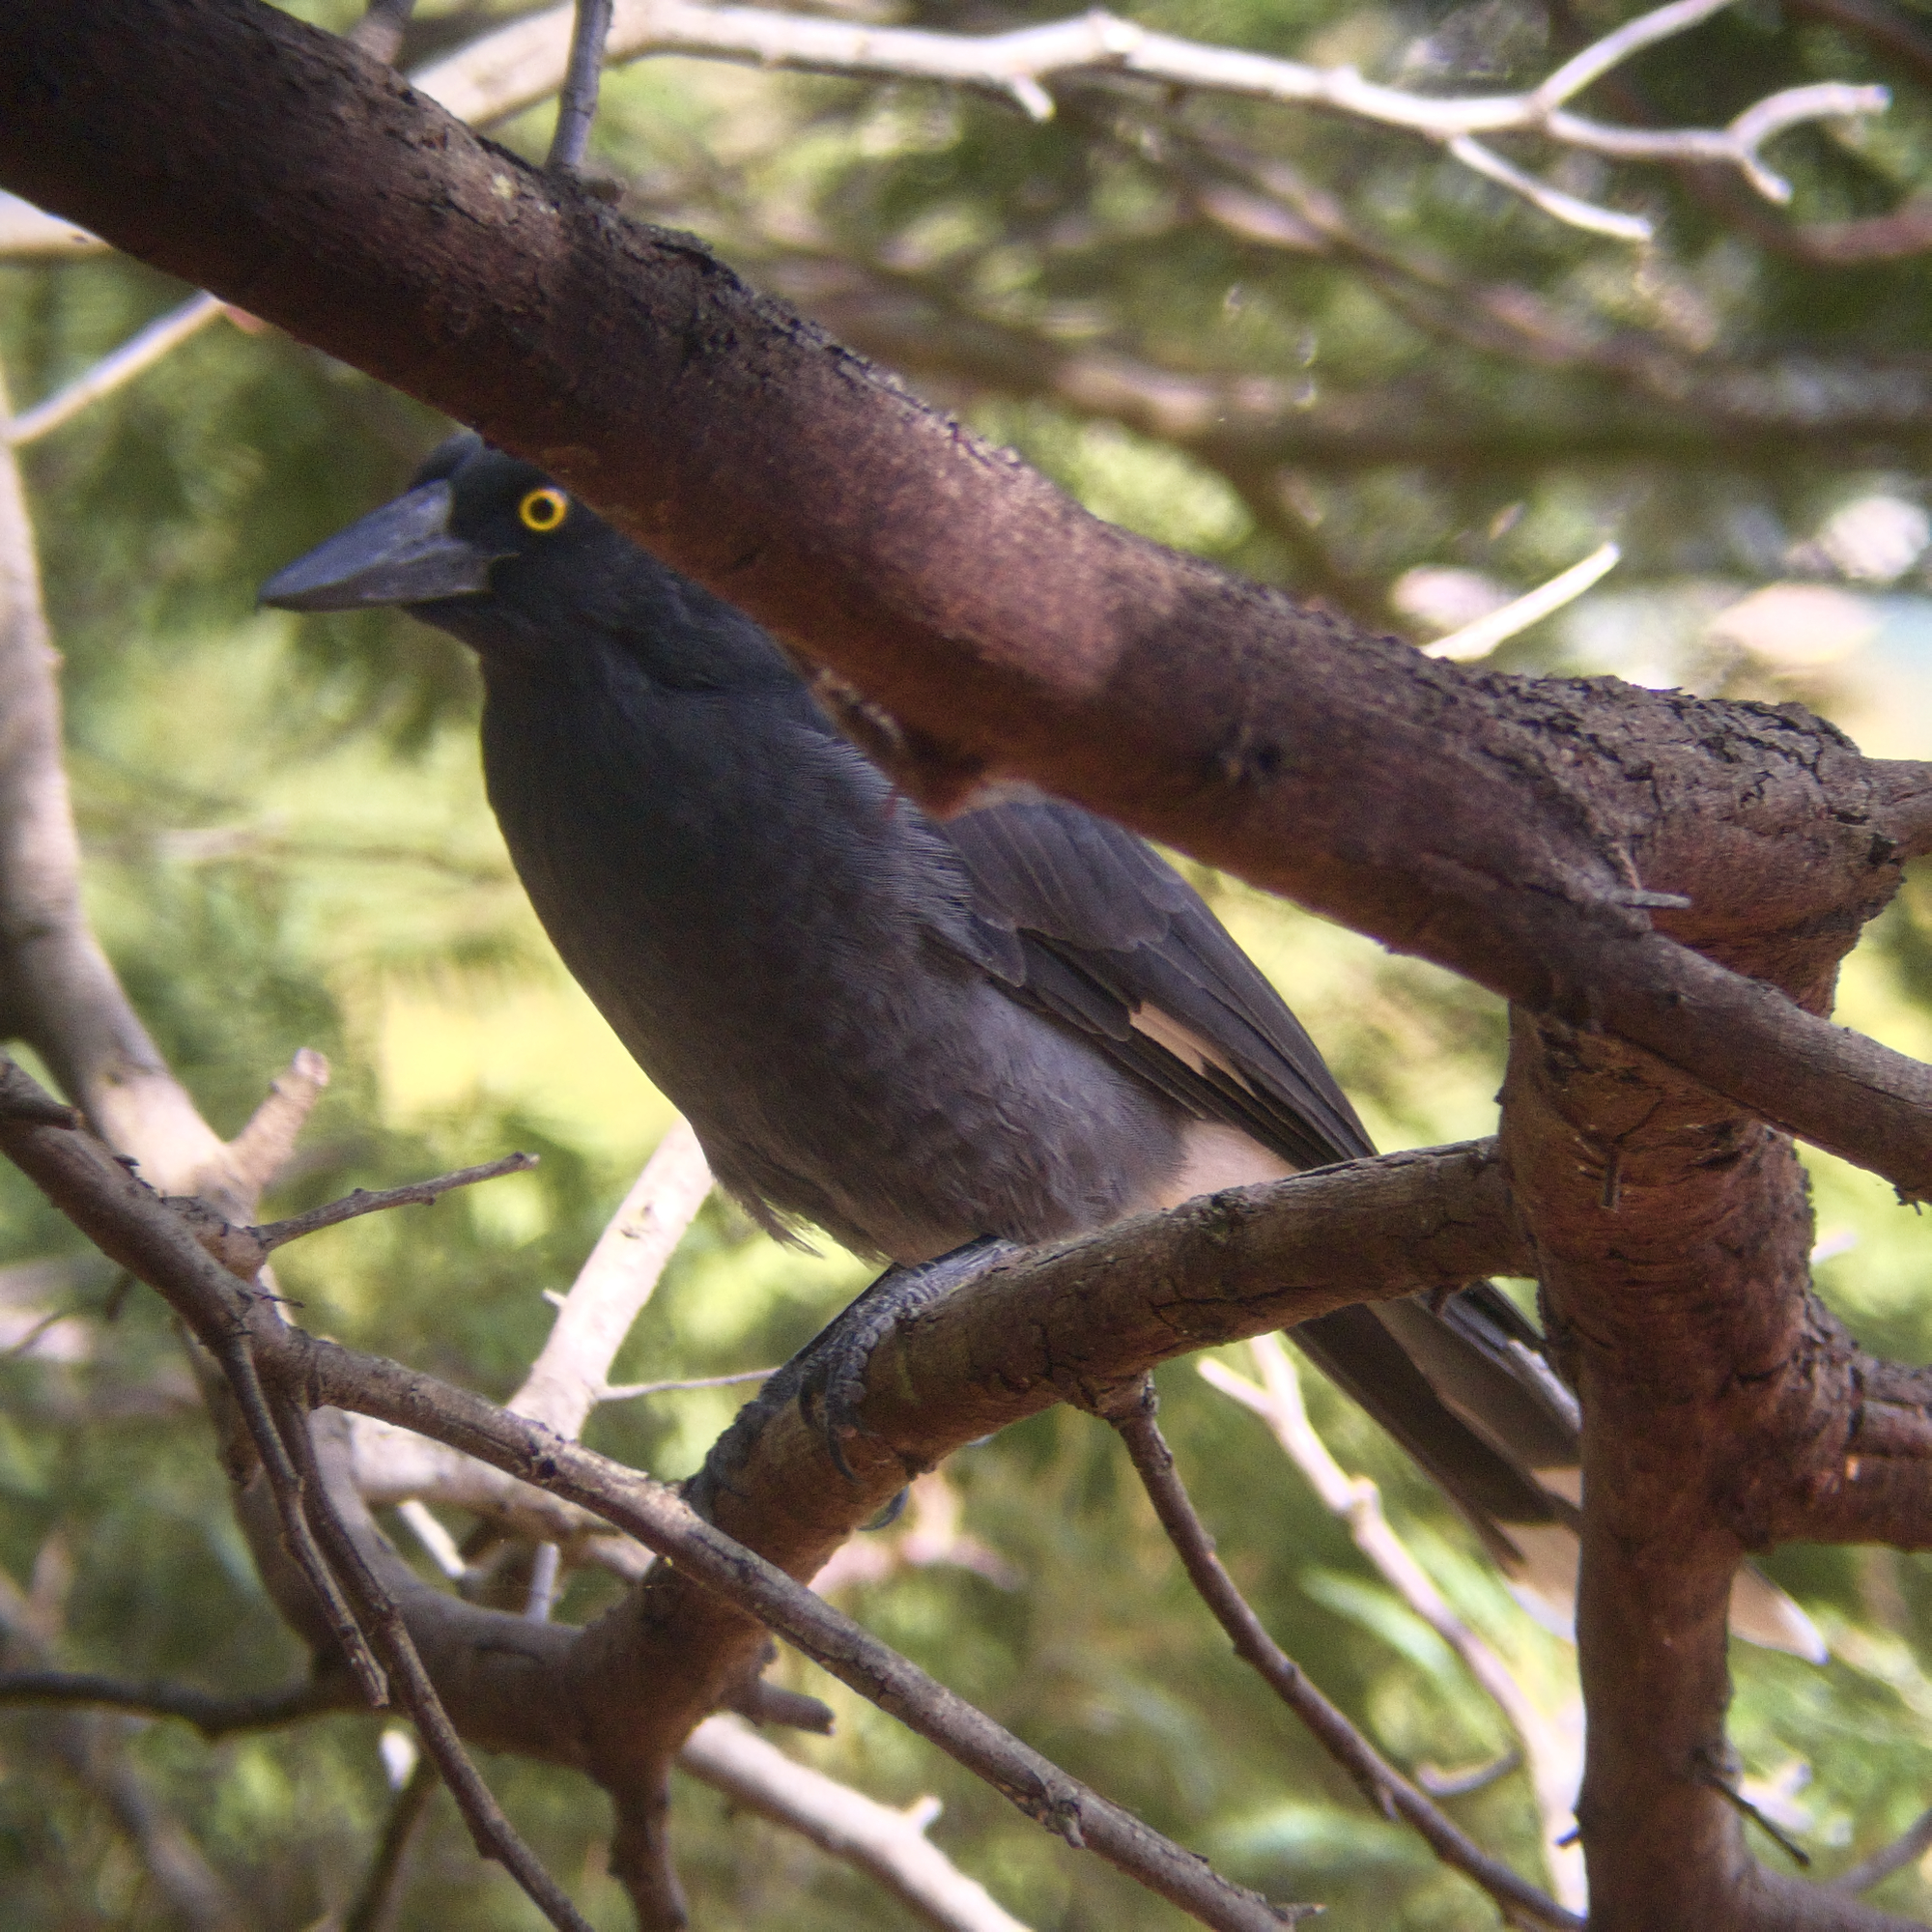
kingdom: Animalia
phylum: Chordata
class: Aves
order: Passeriformes
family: Cracticidae
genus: Strepera
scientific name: Strepera graculina
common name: Pied currawong
